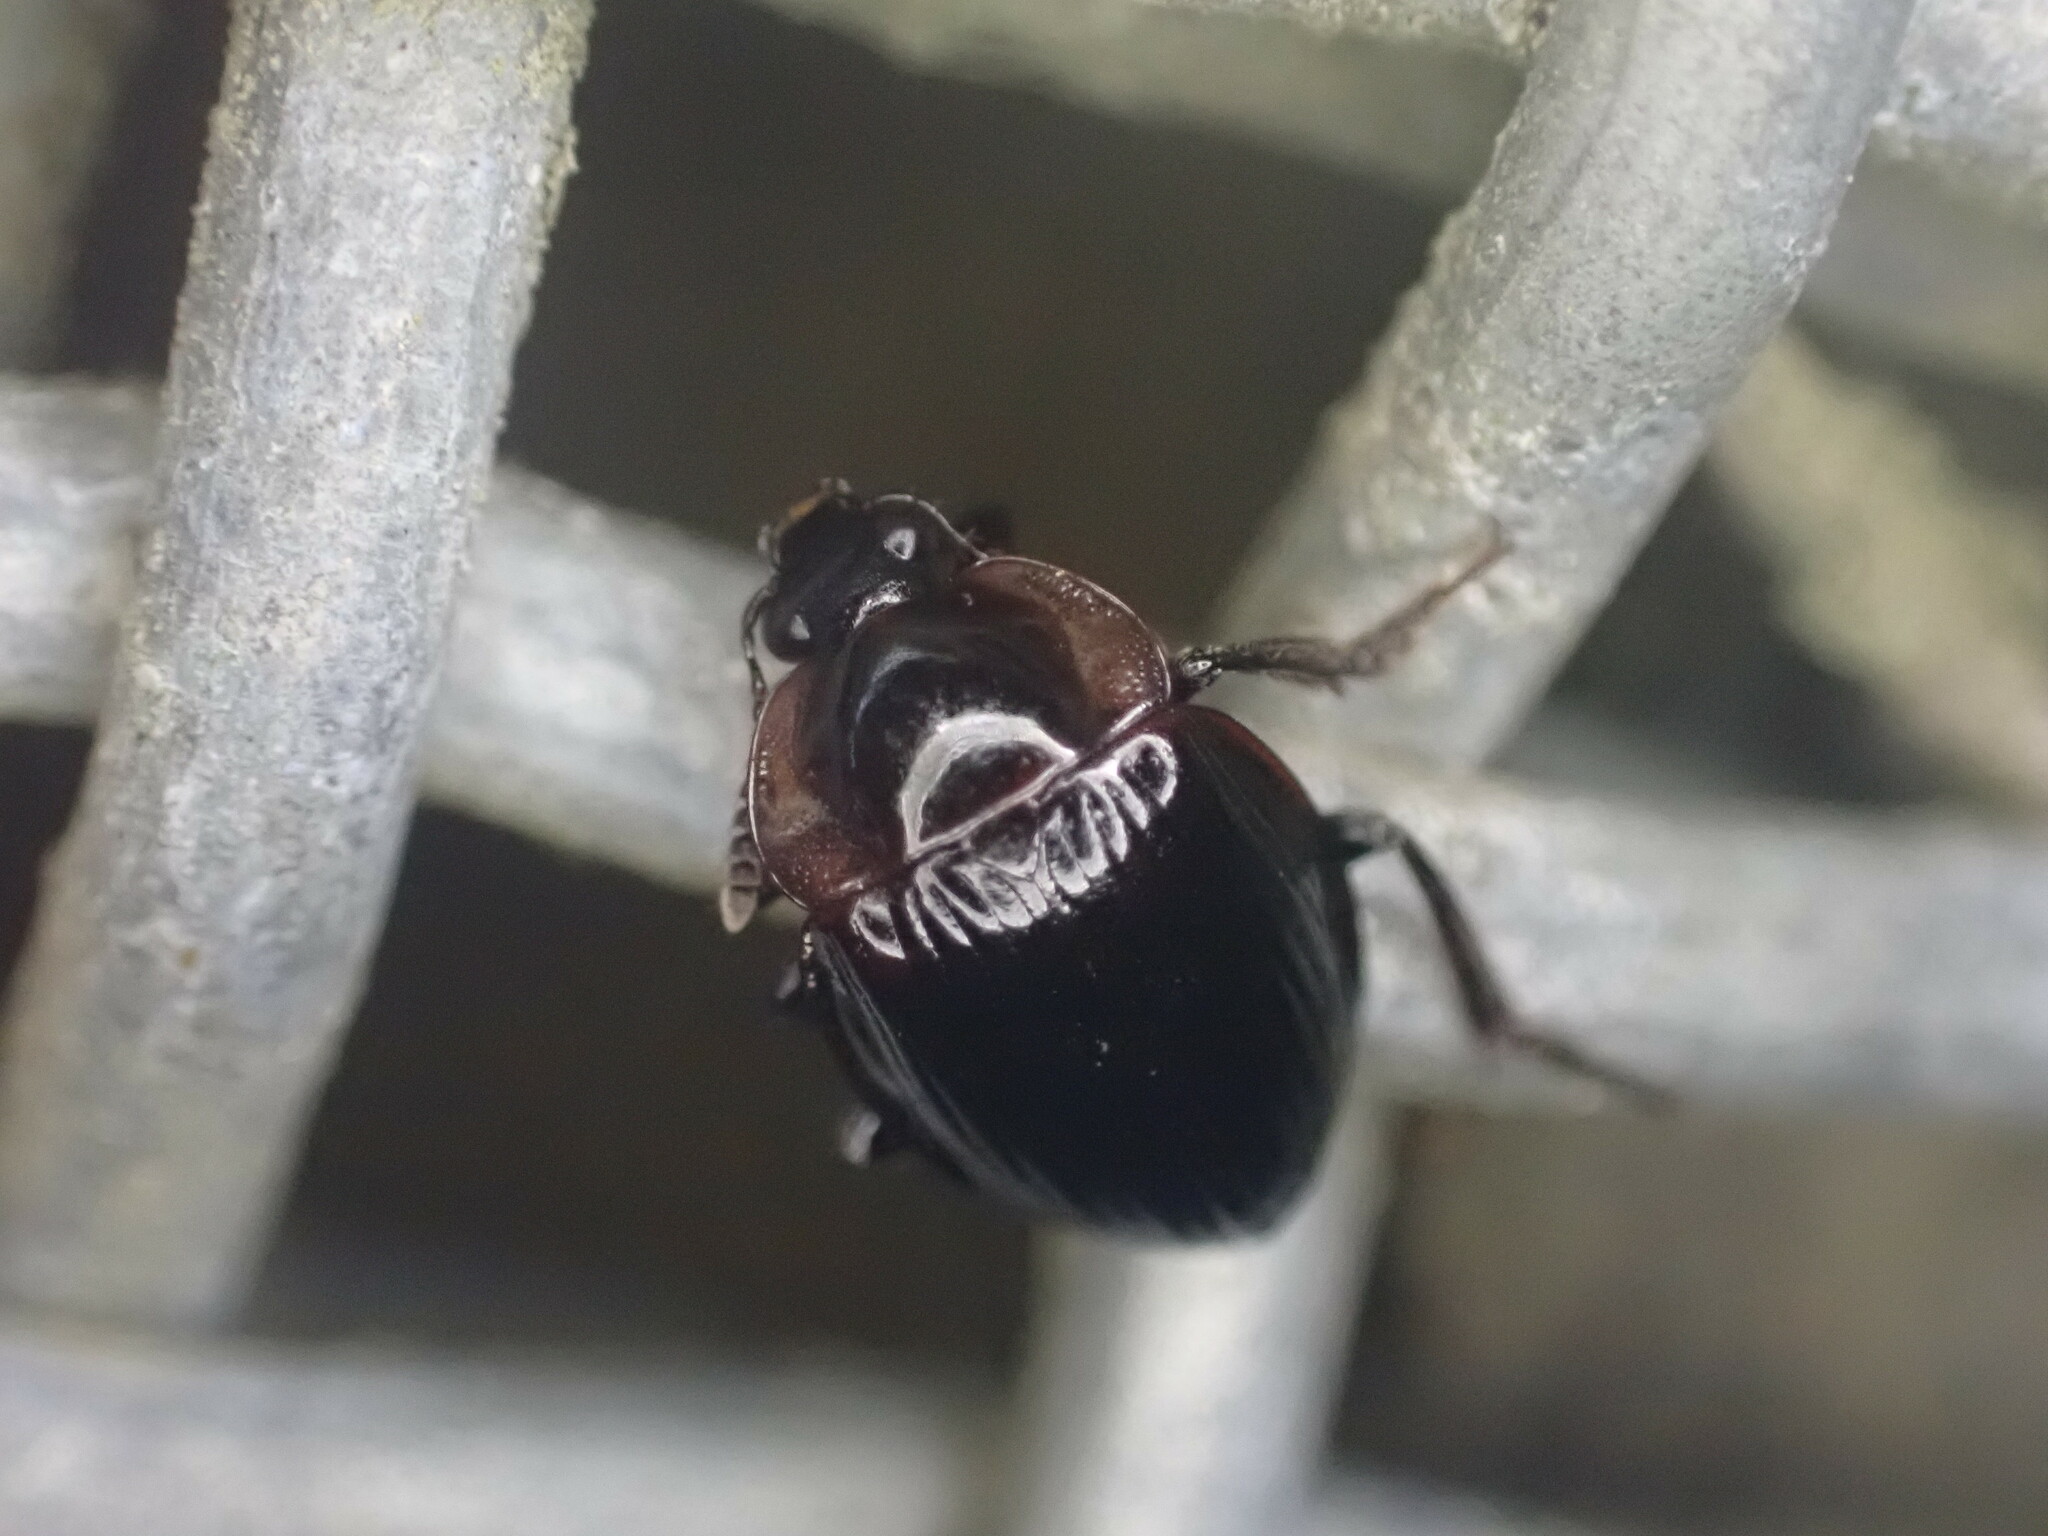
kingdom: Animalia
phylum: Arthropoda
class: Insecta
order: Coleoptera
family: Agyrtidae
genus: Zeanecrophilus
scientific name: Zeanecrophilus thayerae
